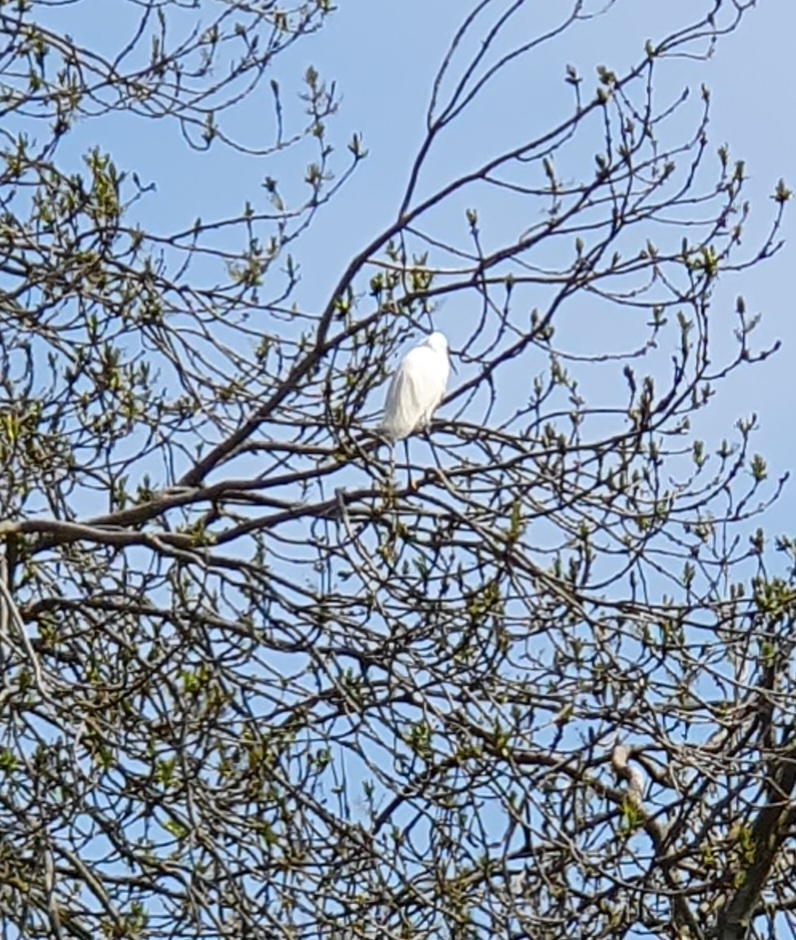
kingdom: Animalia
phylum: Chordata
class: Aves
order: Pelecaniformes
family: Ardeidae
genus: Egretta
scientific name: Egretta garzetta
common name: Little egret
